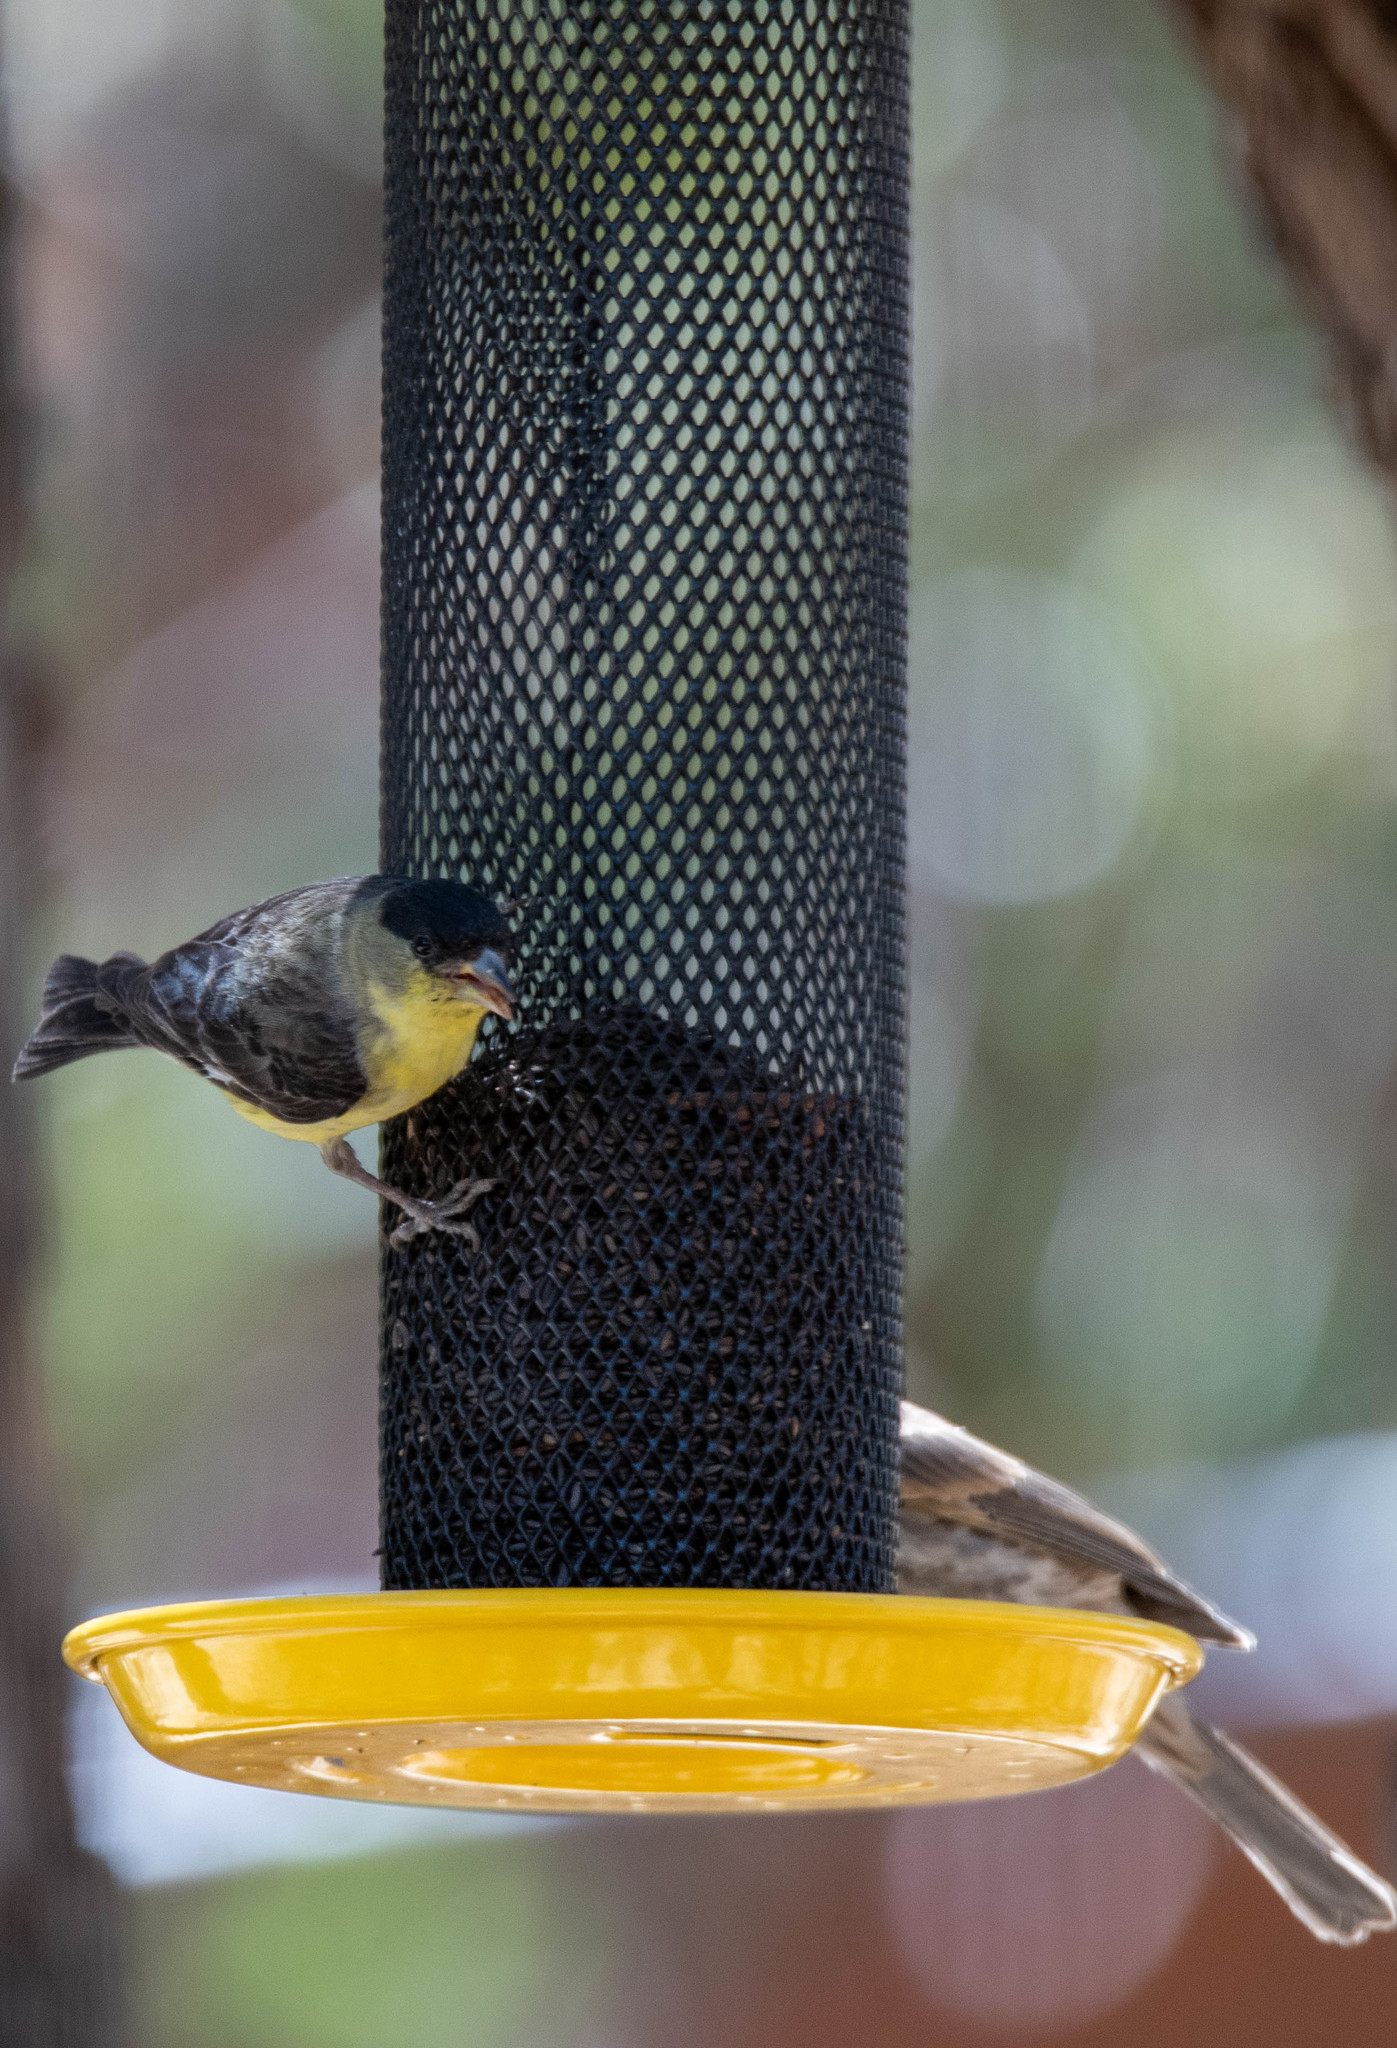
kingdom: Animalia
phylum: Chordata
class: Aves
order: Passeriformes
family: Fringillidae
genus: Spinus
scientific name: Spinus psaltria
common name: Lesser goldfinch
